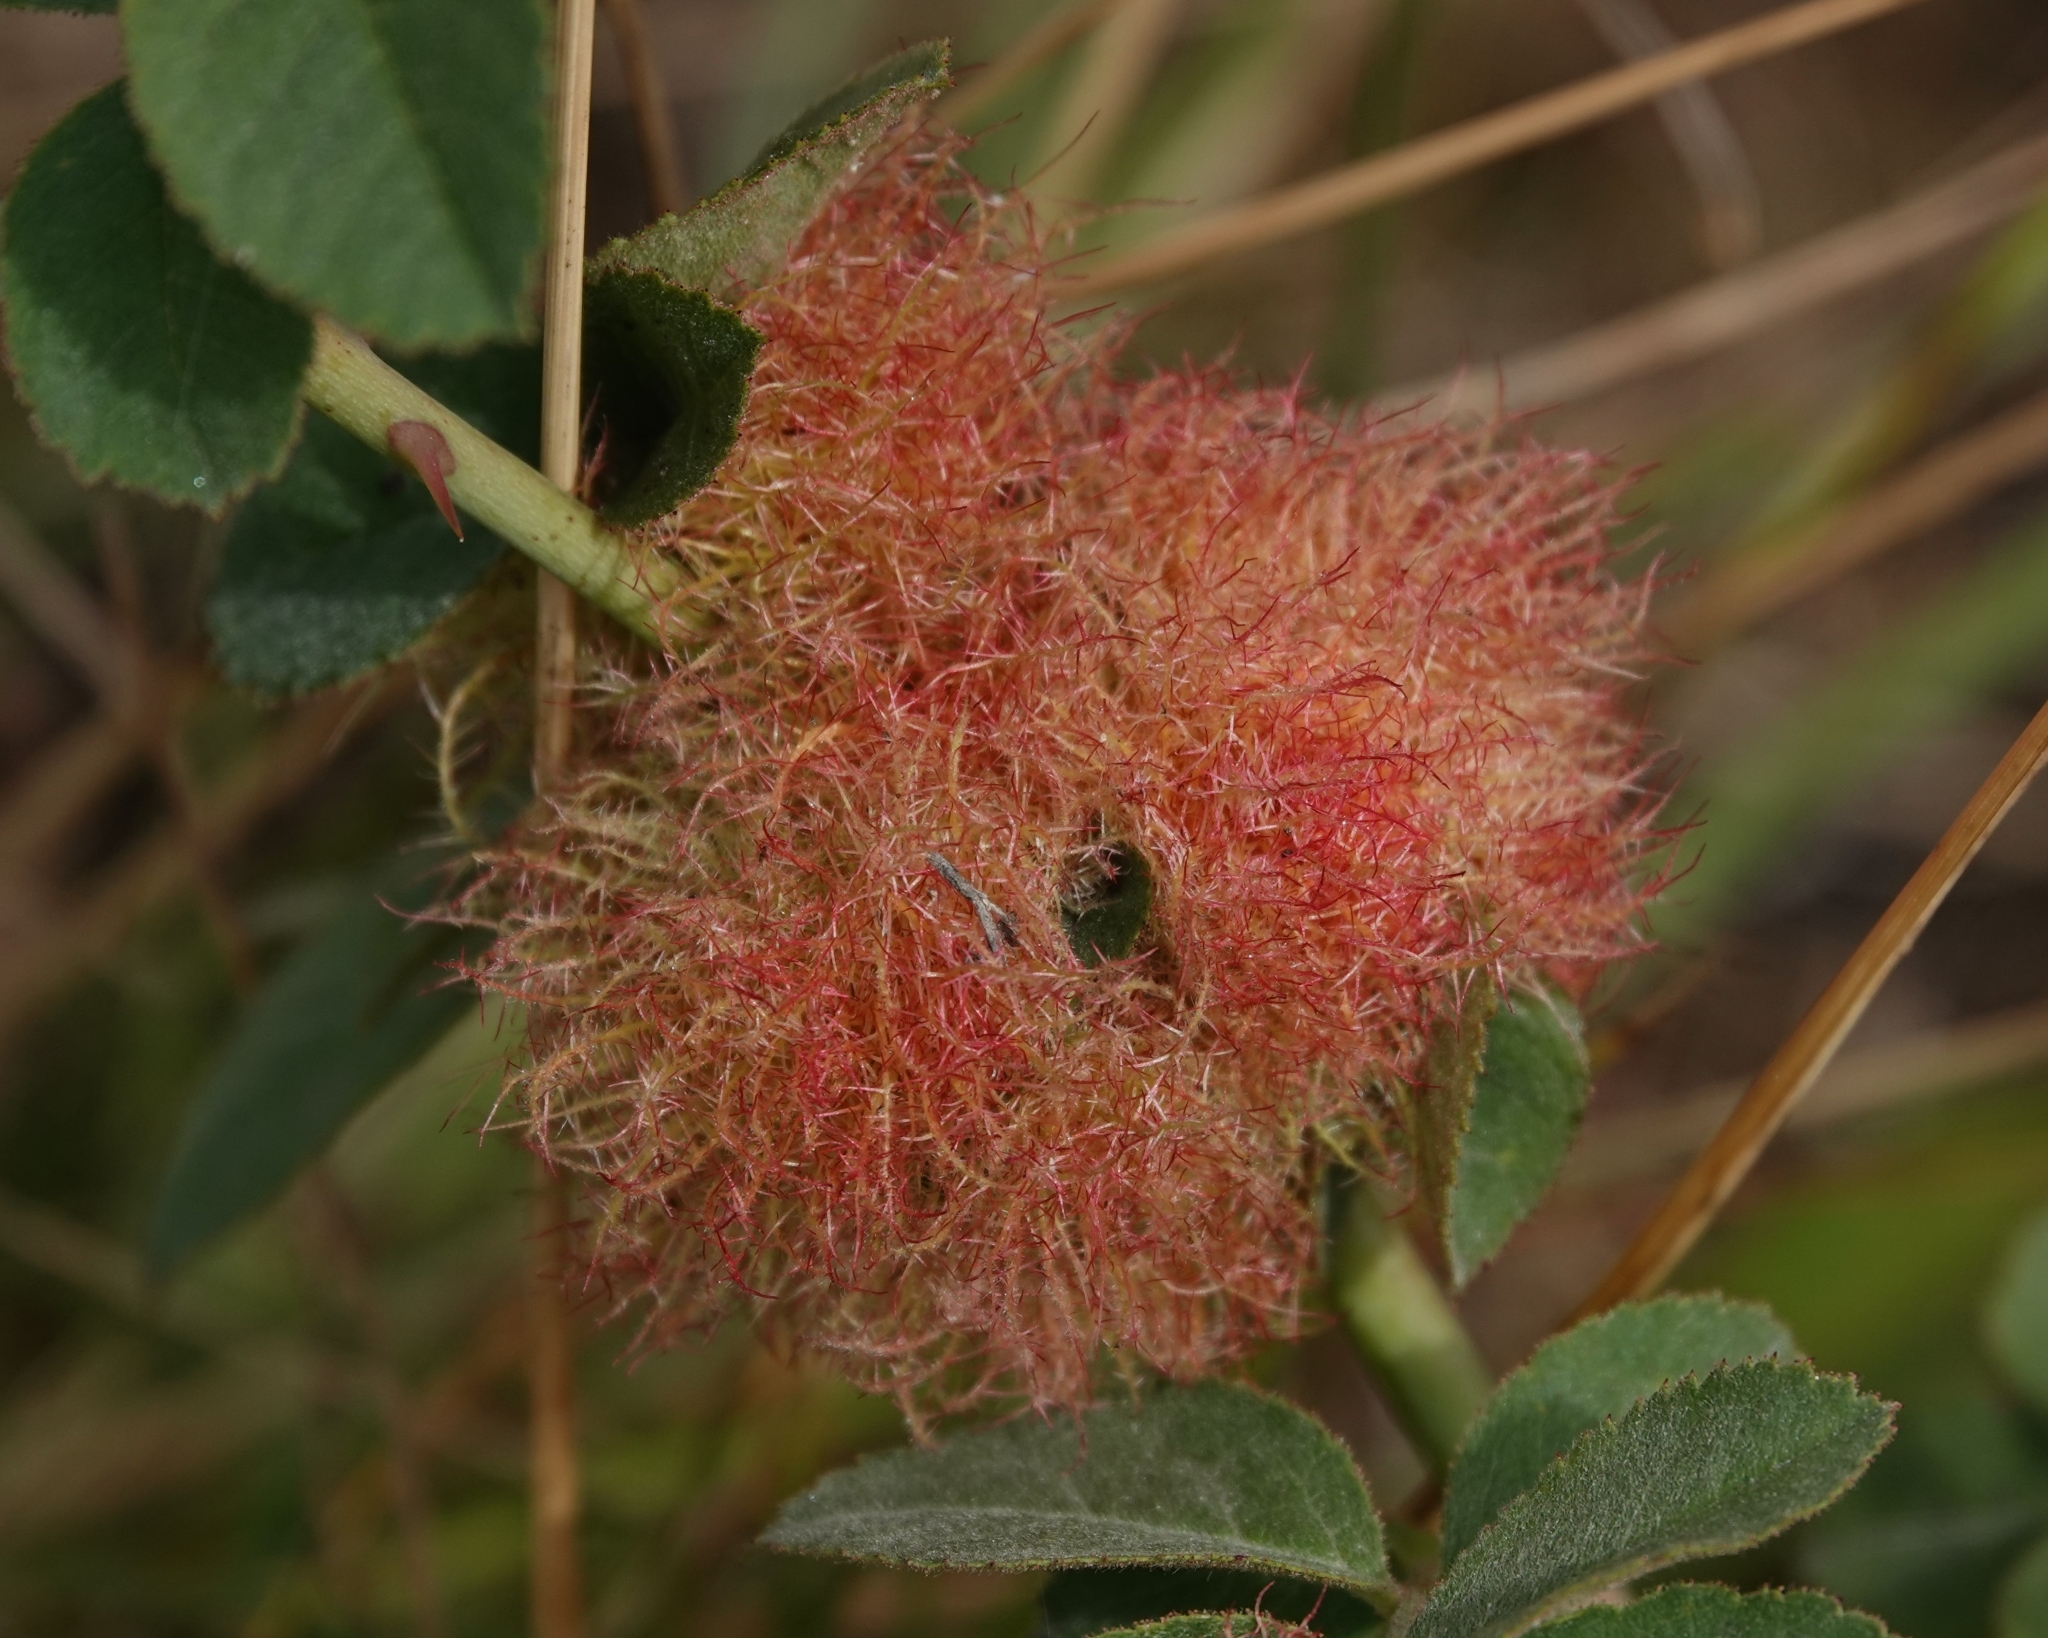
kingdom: Animalia
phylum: Arthropoda
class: Insecta
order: Hymenoptera
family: Cynipidae
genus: Diplolepis
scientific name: Diplolepis rosae
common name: Bedeguar gall
